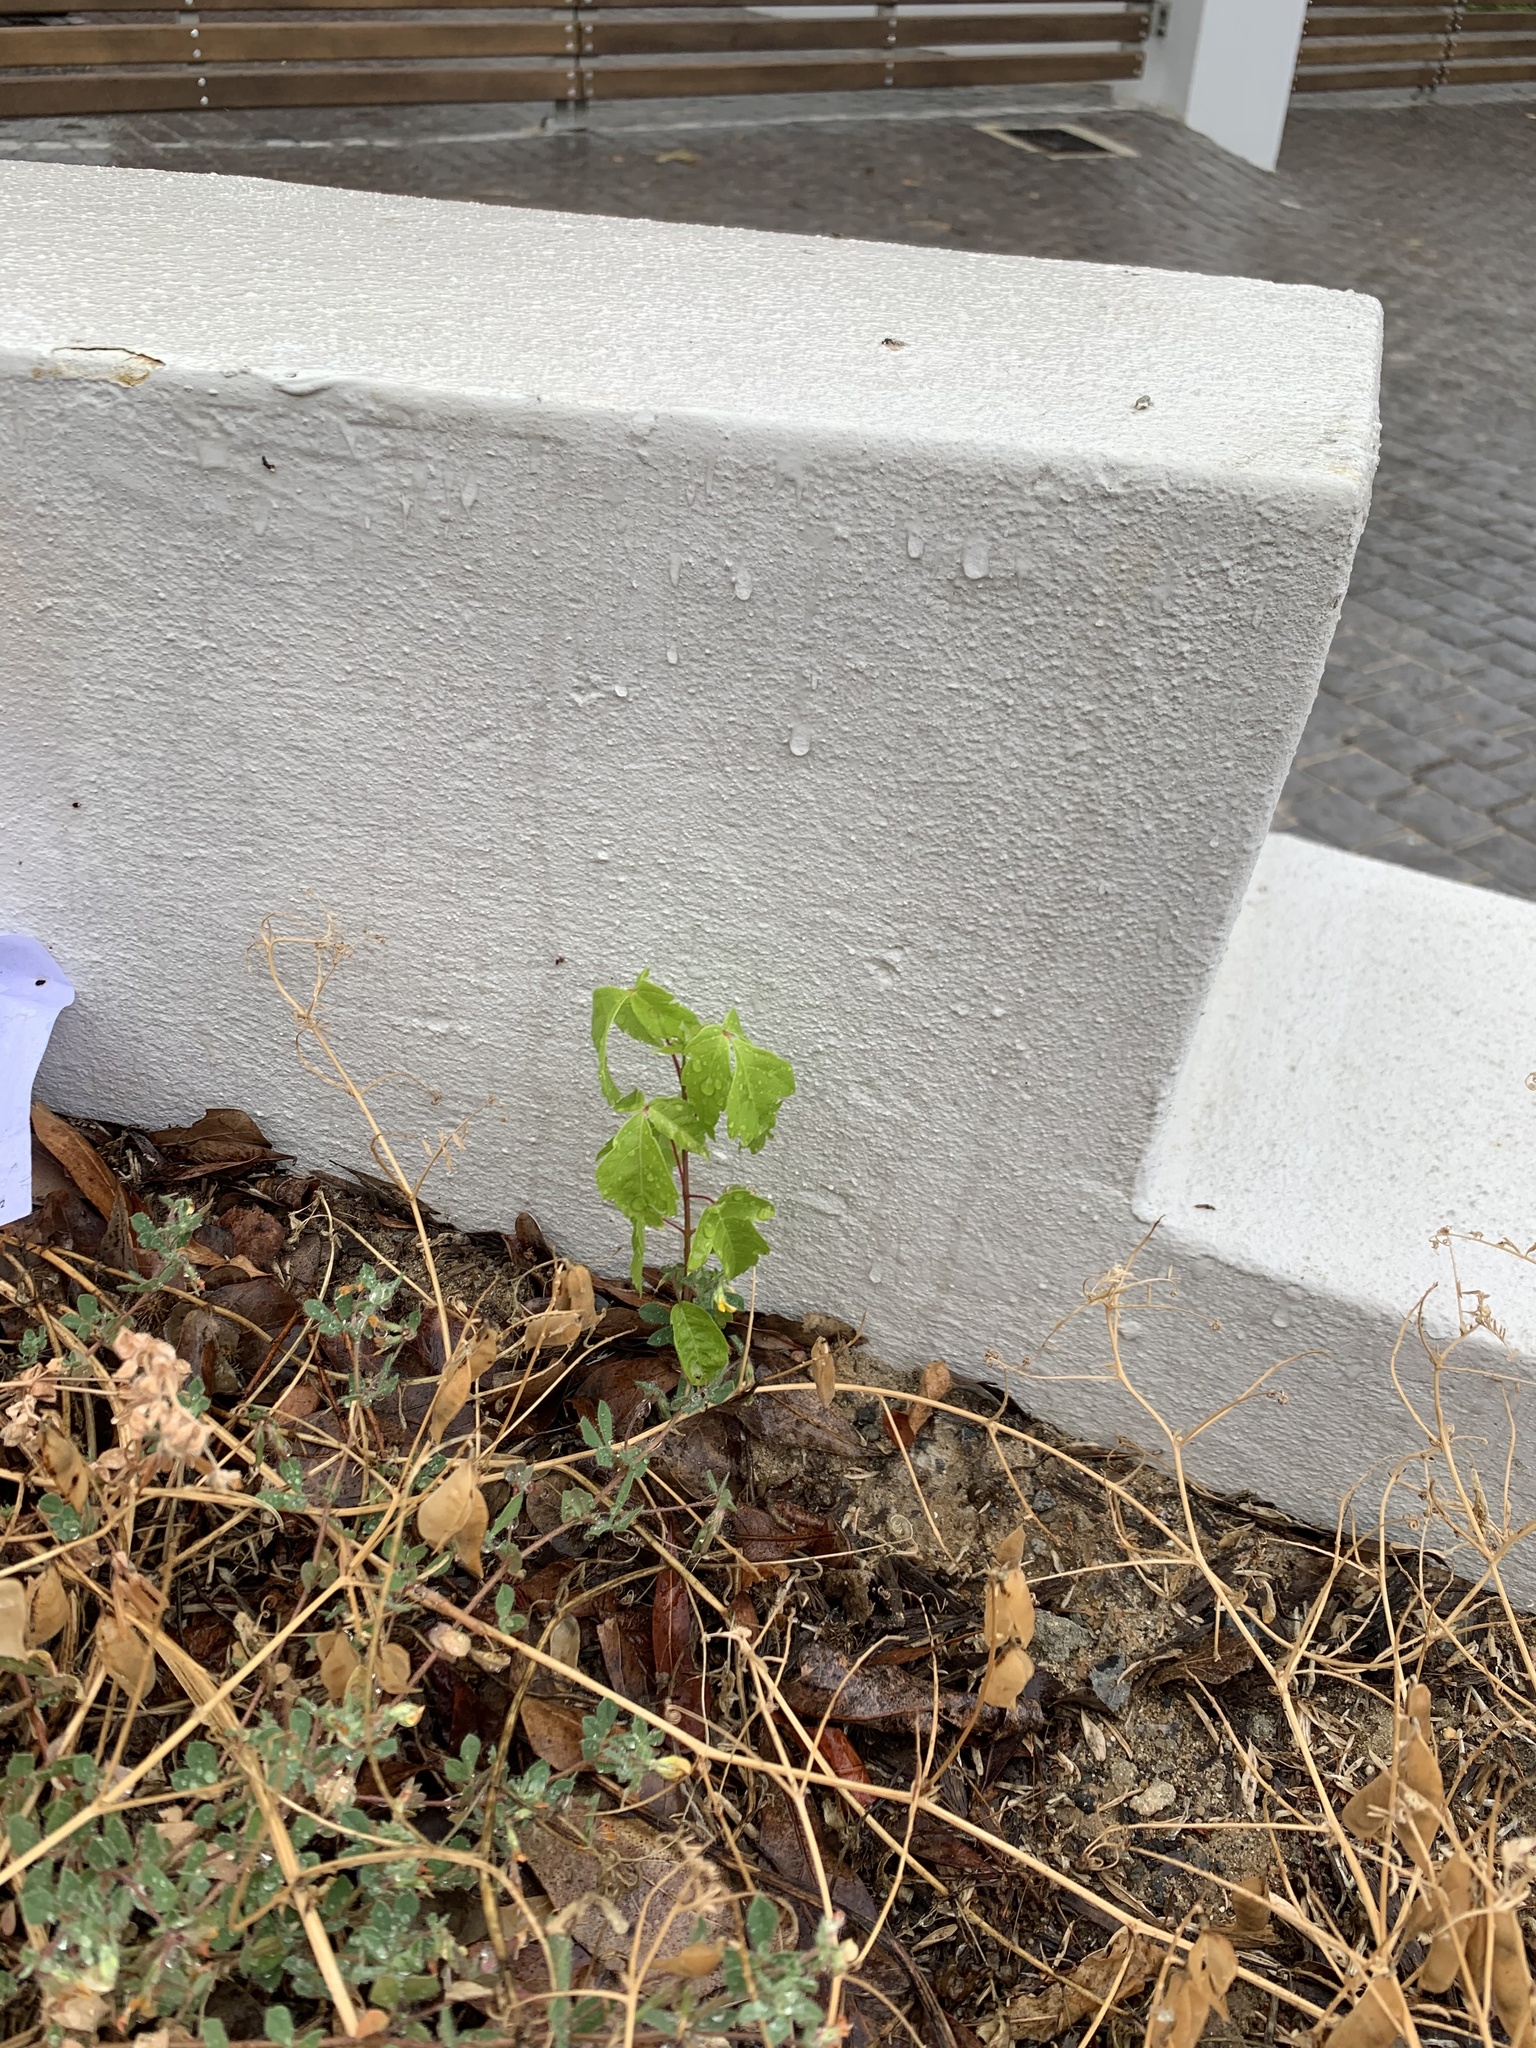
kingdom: Plantae
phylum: Tracheophyta
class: Magnoliopsida
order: Sapindales
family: Sapindaceae
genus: Acer
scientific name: Acer negundo
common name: Ashleaf maple
